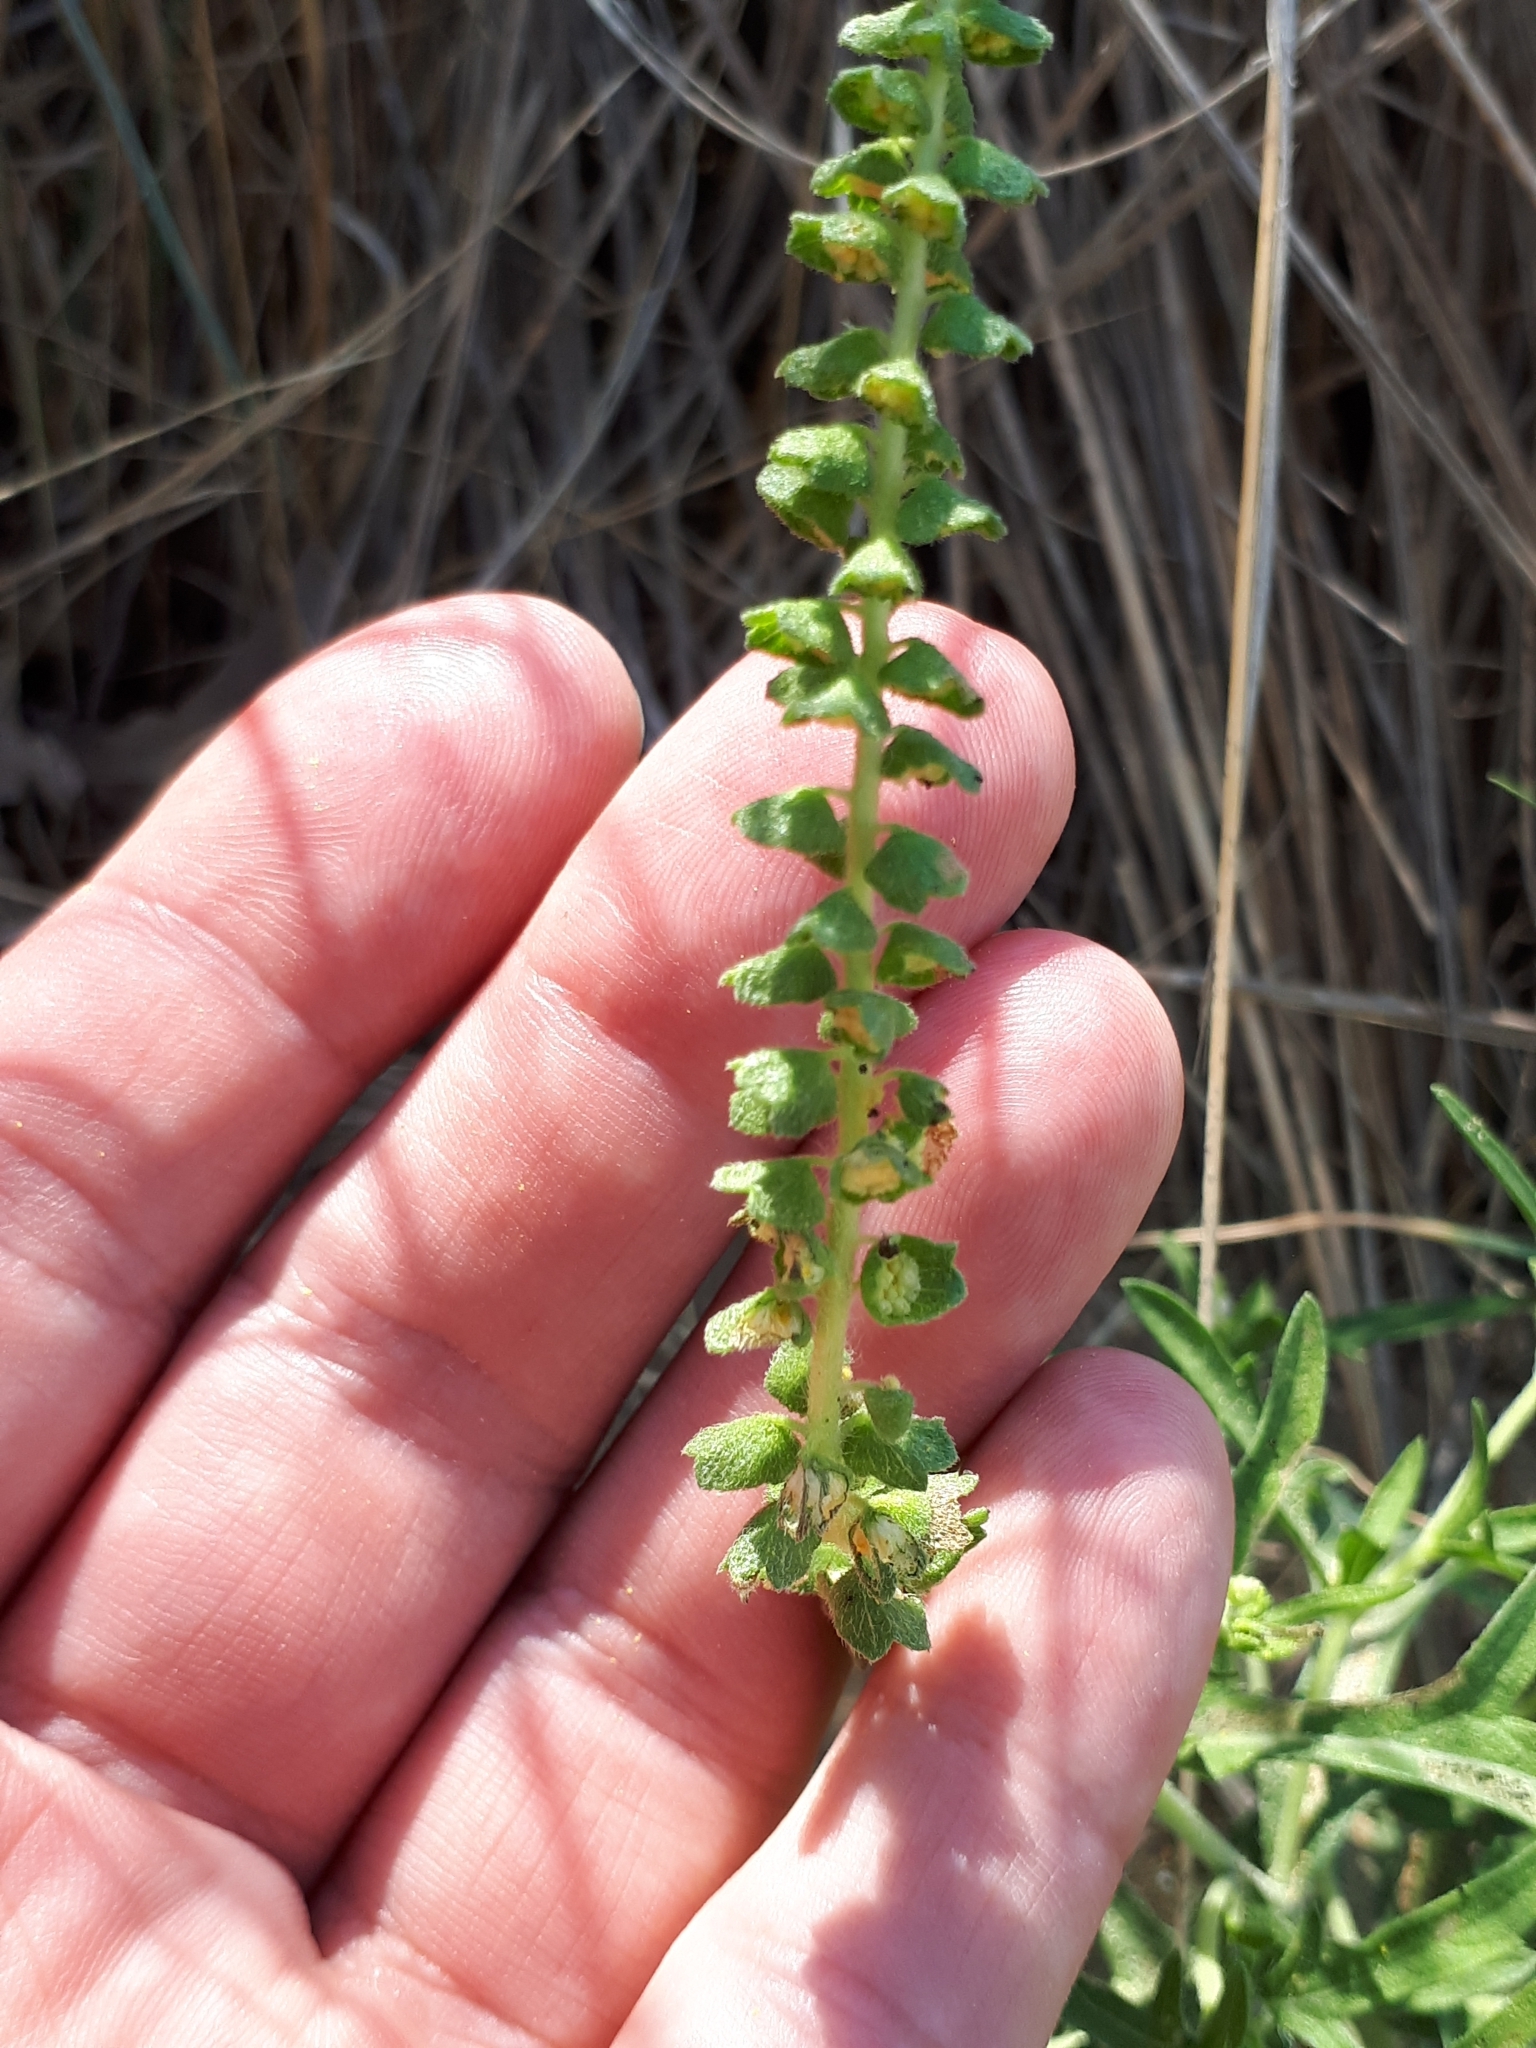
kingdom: Plantae
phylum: Tracheophyta
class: Magnoliopsida
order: Asterales
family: Asteraceae
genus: Ambrosia
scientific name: Ambrosia psilostachya
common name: Perennial ragweed
